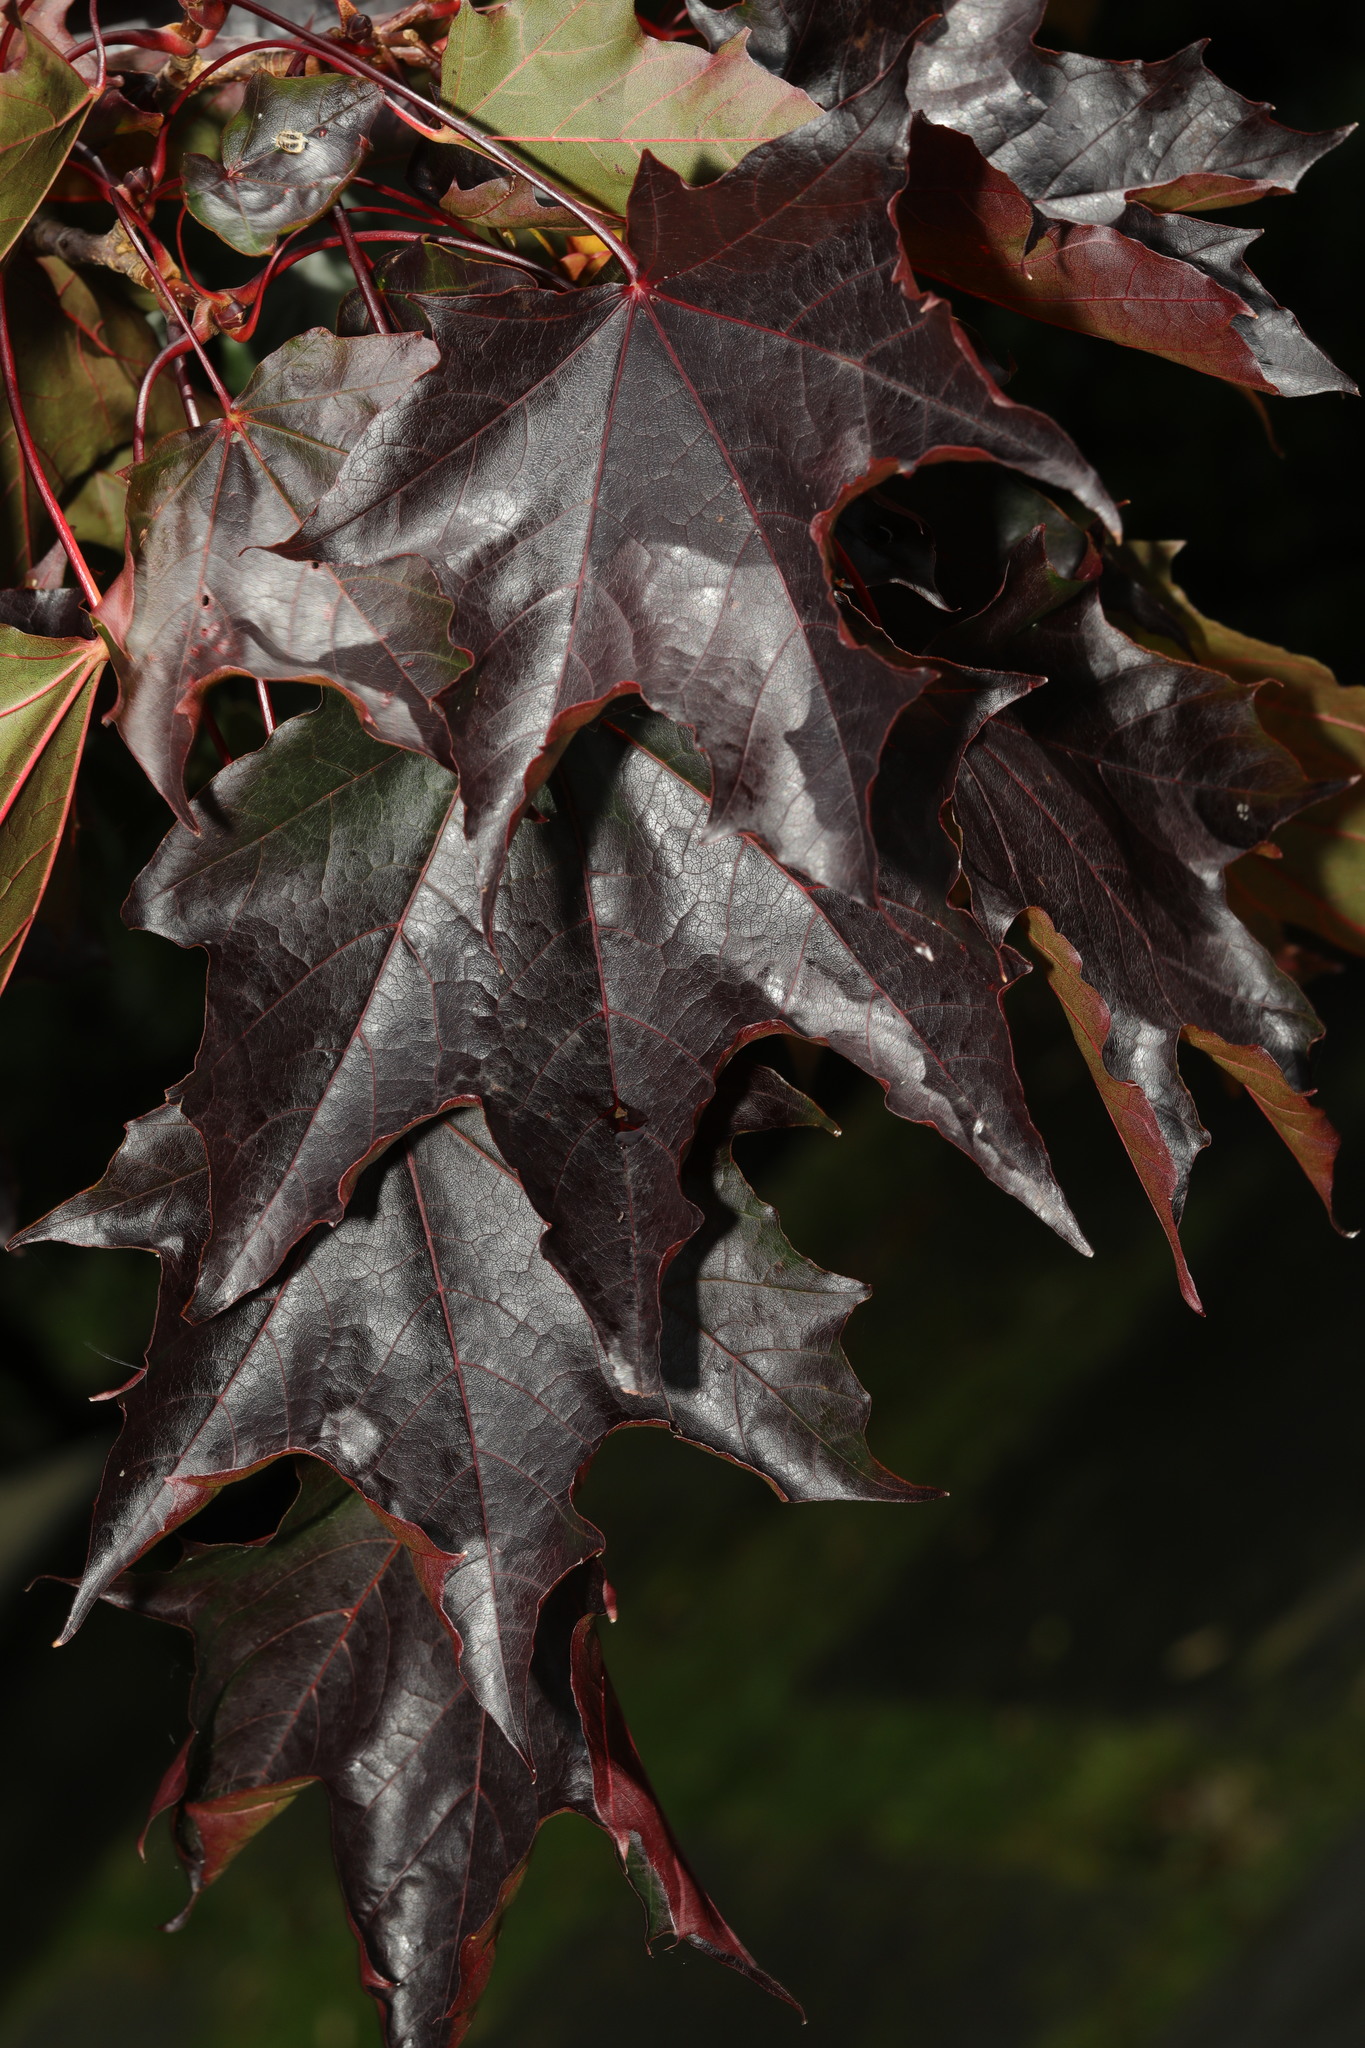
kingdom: Plantae
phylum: Tracheophyta
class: Magnoliopsida
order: Sapindales
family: Sapindaceae
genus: Acer
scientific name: Acer platanoides
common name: Norway maple
